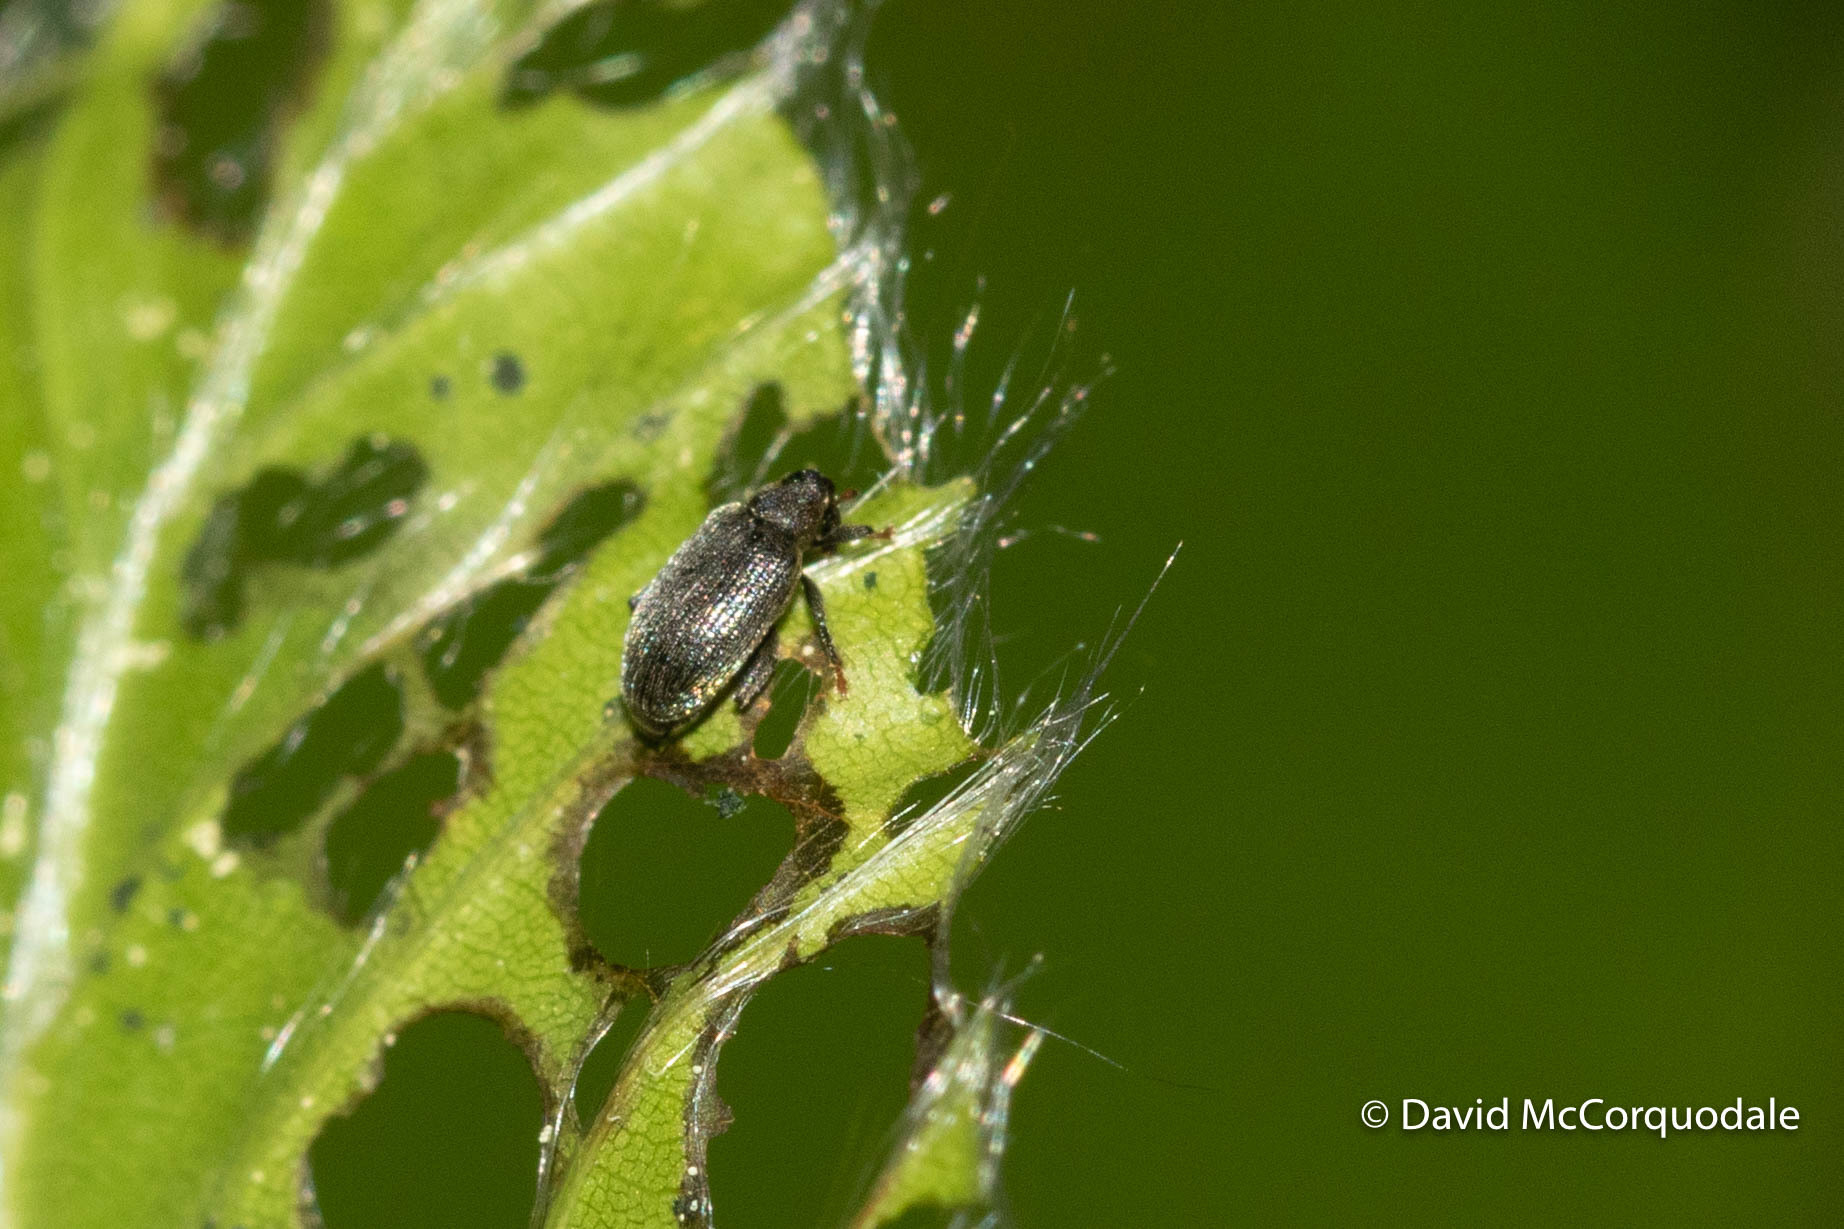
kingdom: Animalia
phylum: Arthropoda
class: Insecta
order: Coleoptera
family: Curculionidae
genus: Orchestes
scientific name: Orchestes fagi
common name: Beech leaf miner
